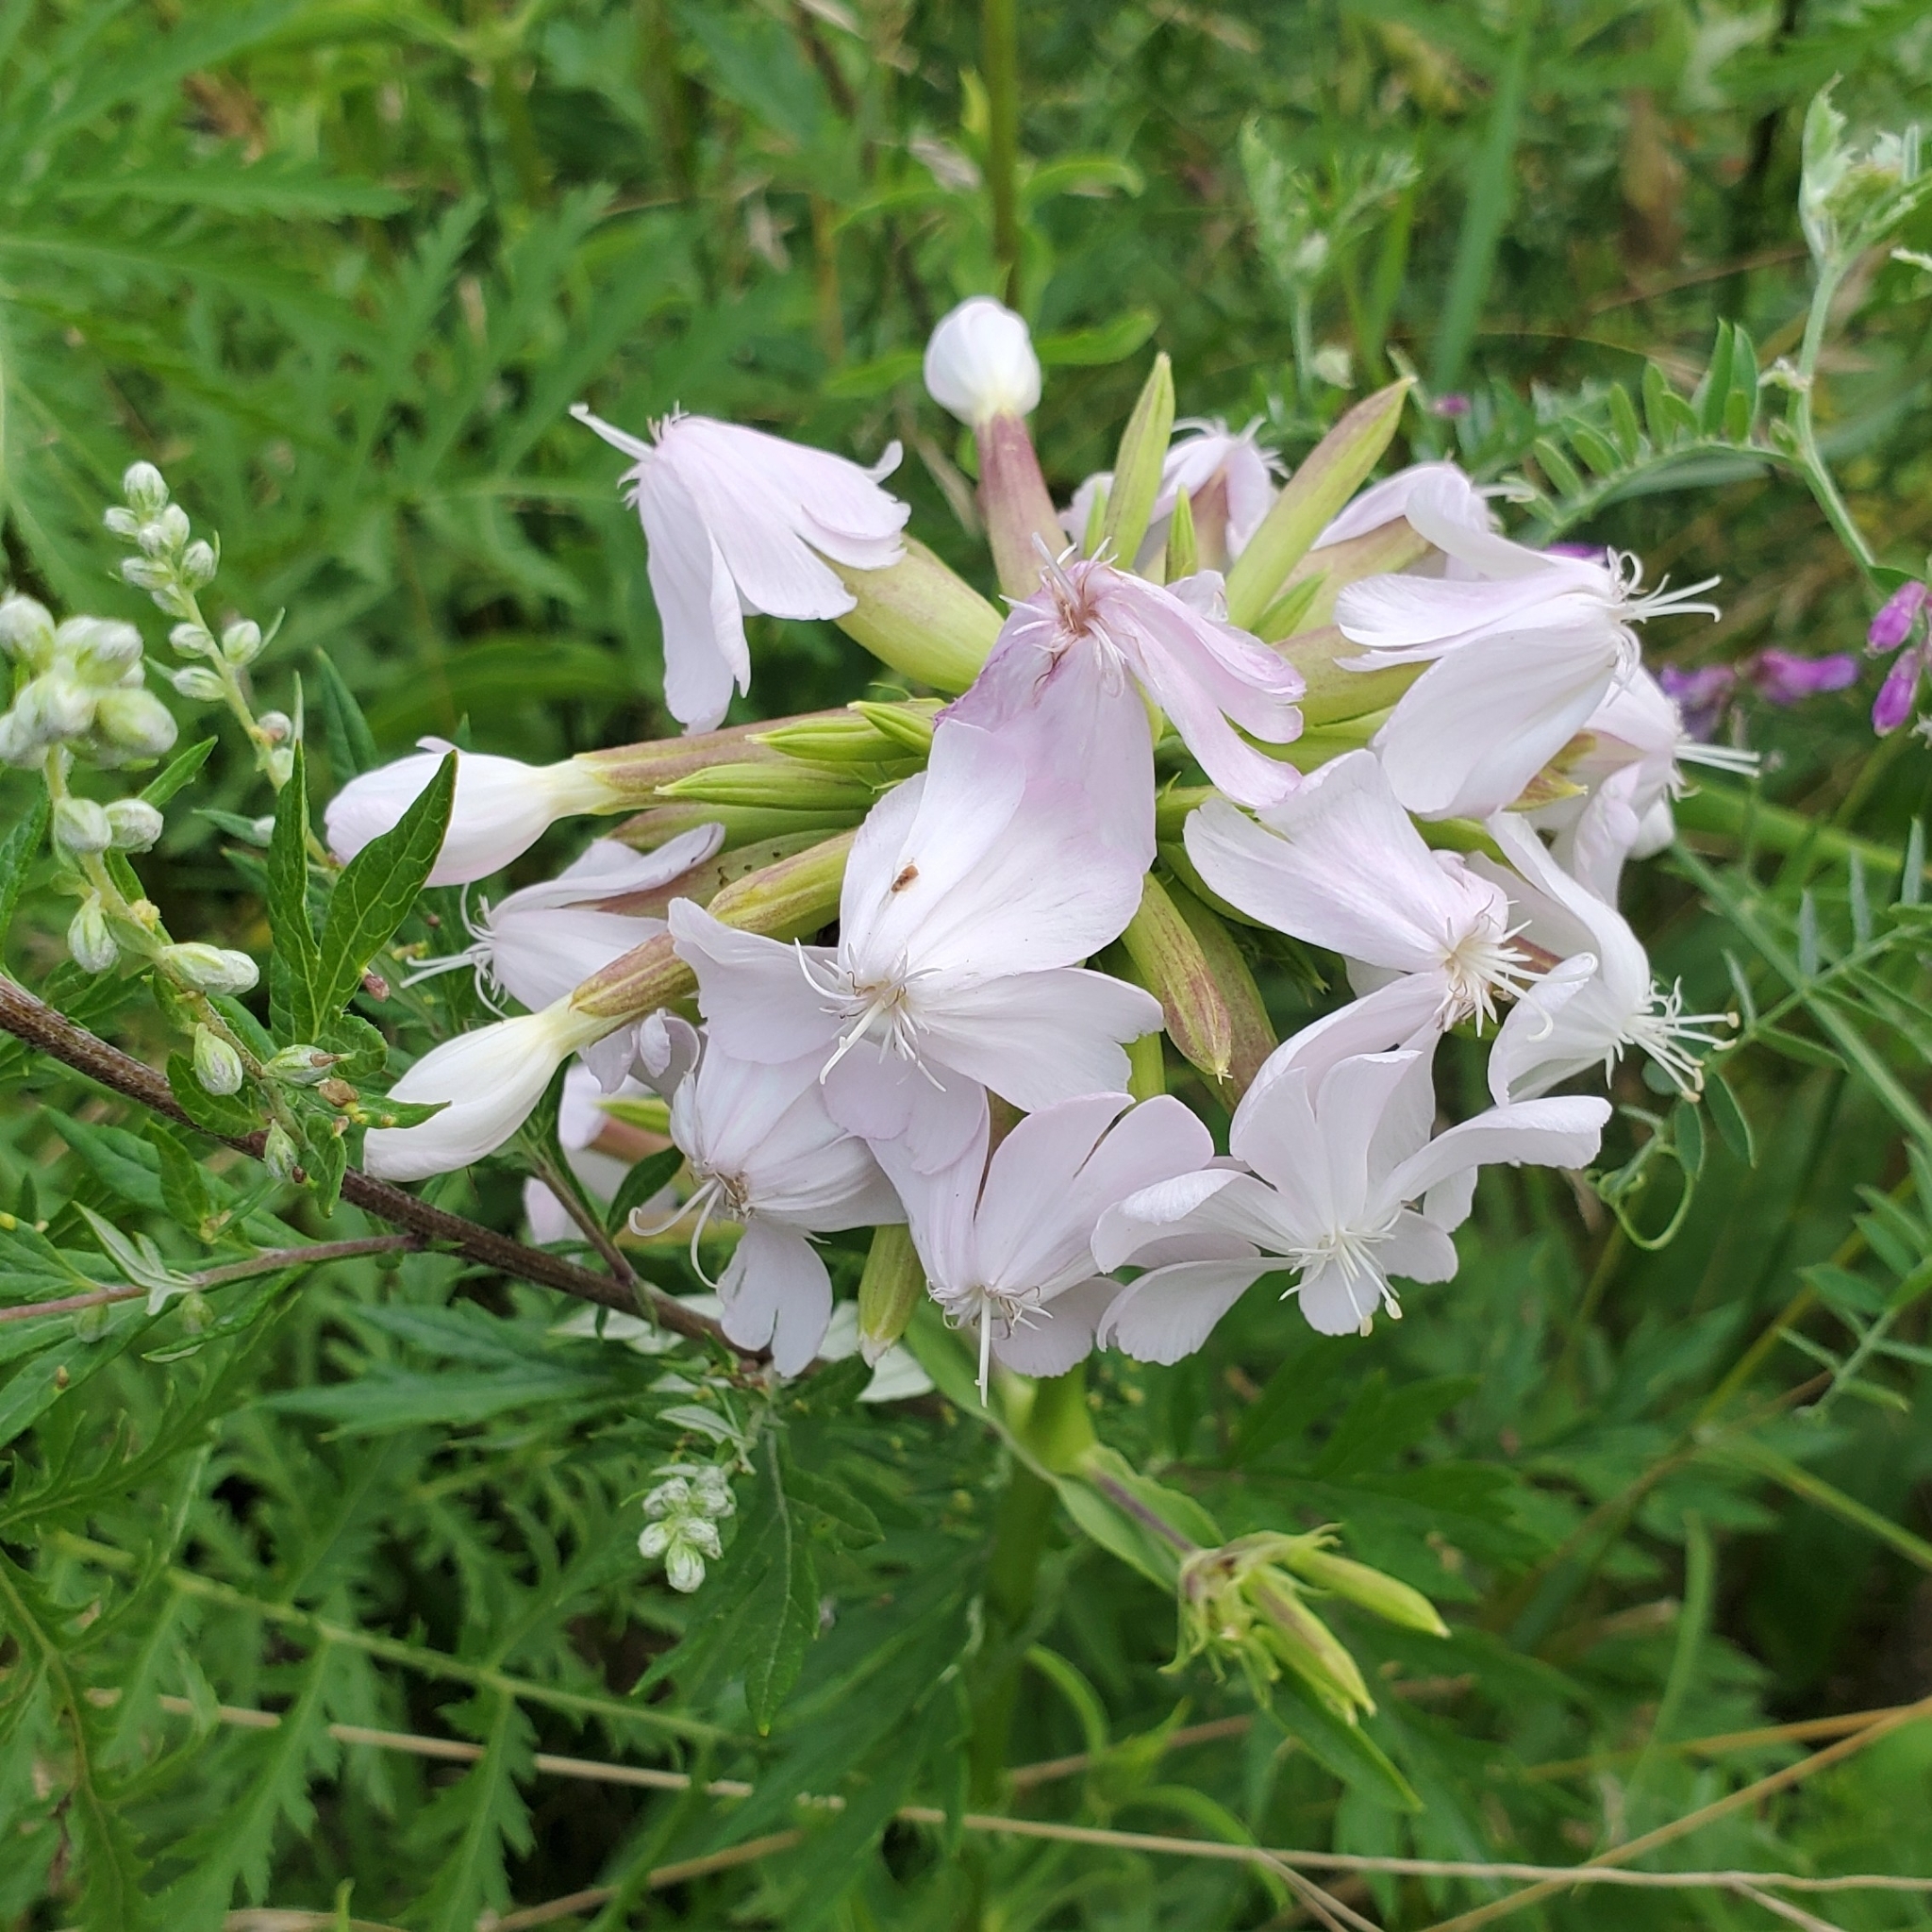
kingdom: Plantae
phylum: Tracheophyta
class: Magnoliopsida
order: Caryophyllales
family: Caryophyllaceae
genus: Saponaria
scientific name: Saponaria officinalis
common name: Soapwort
